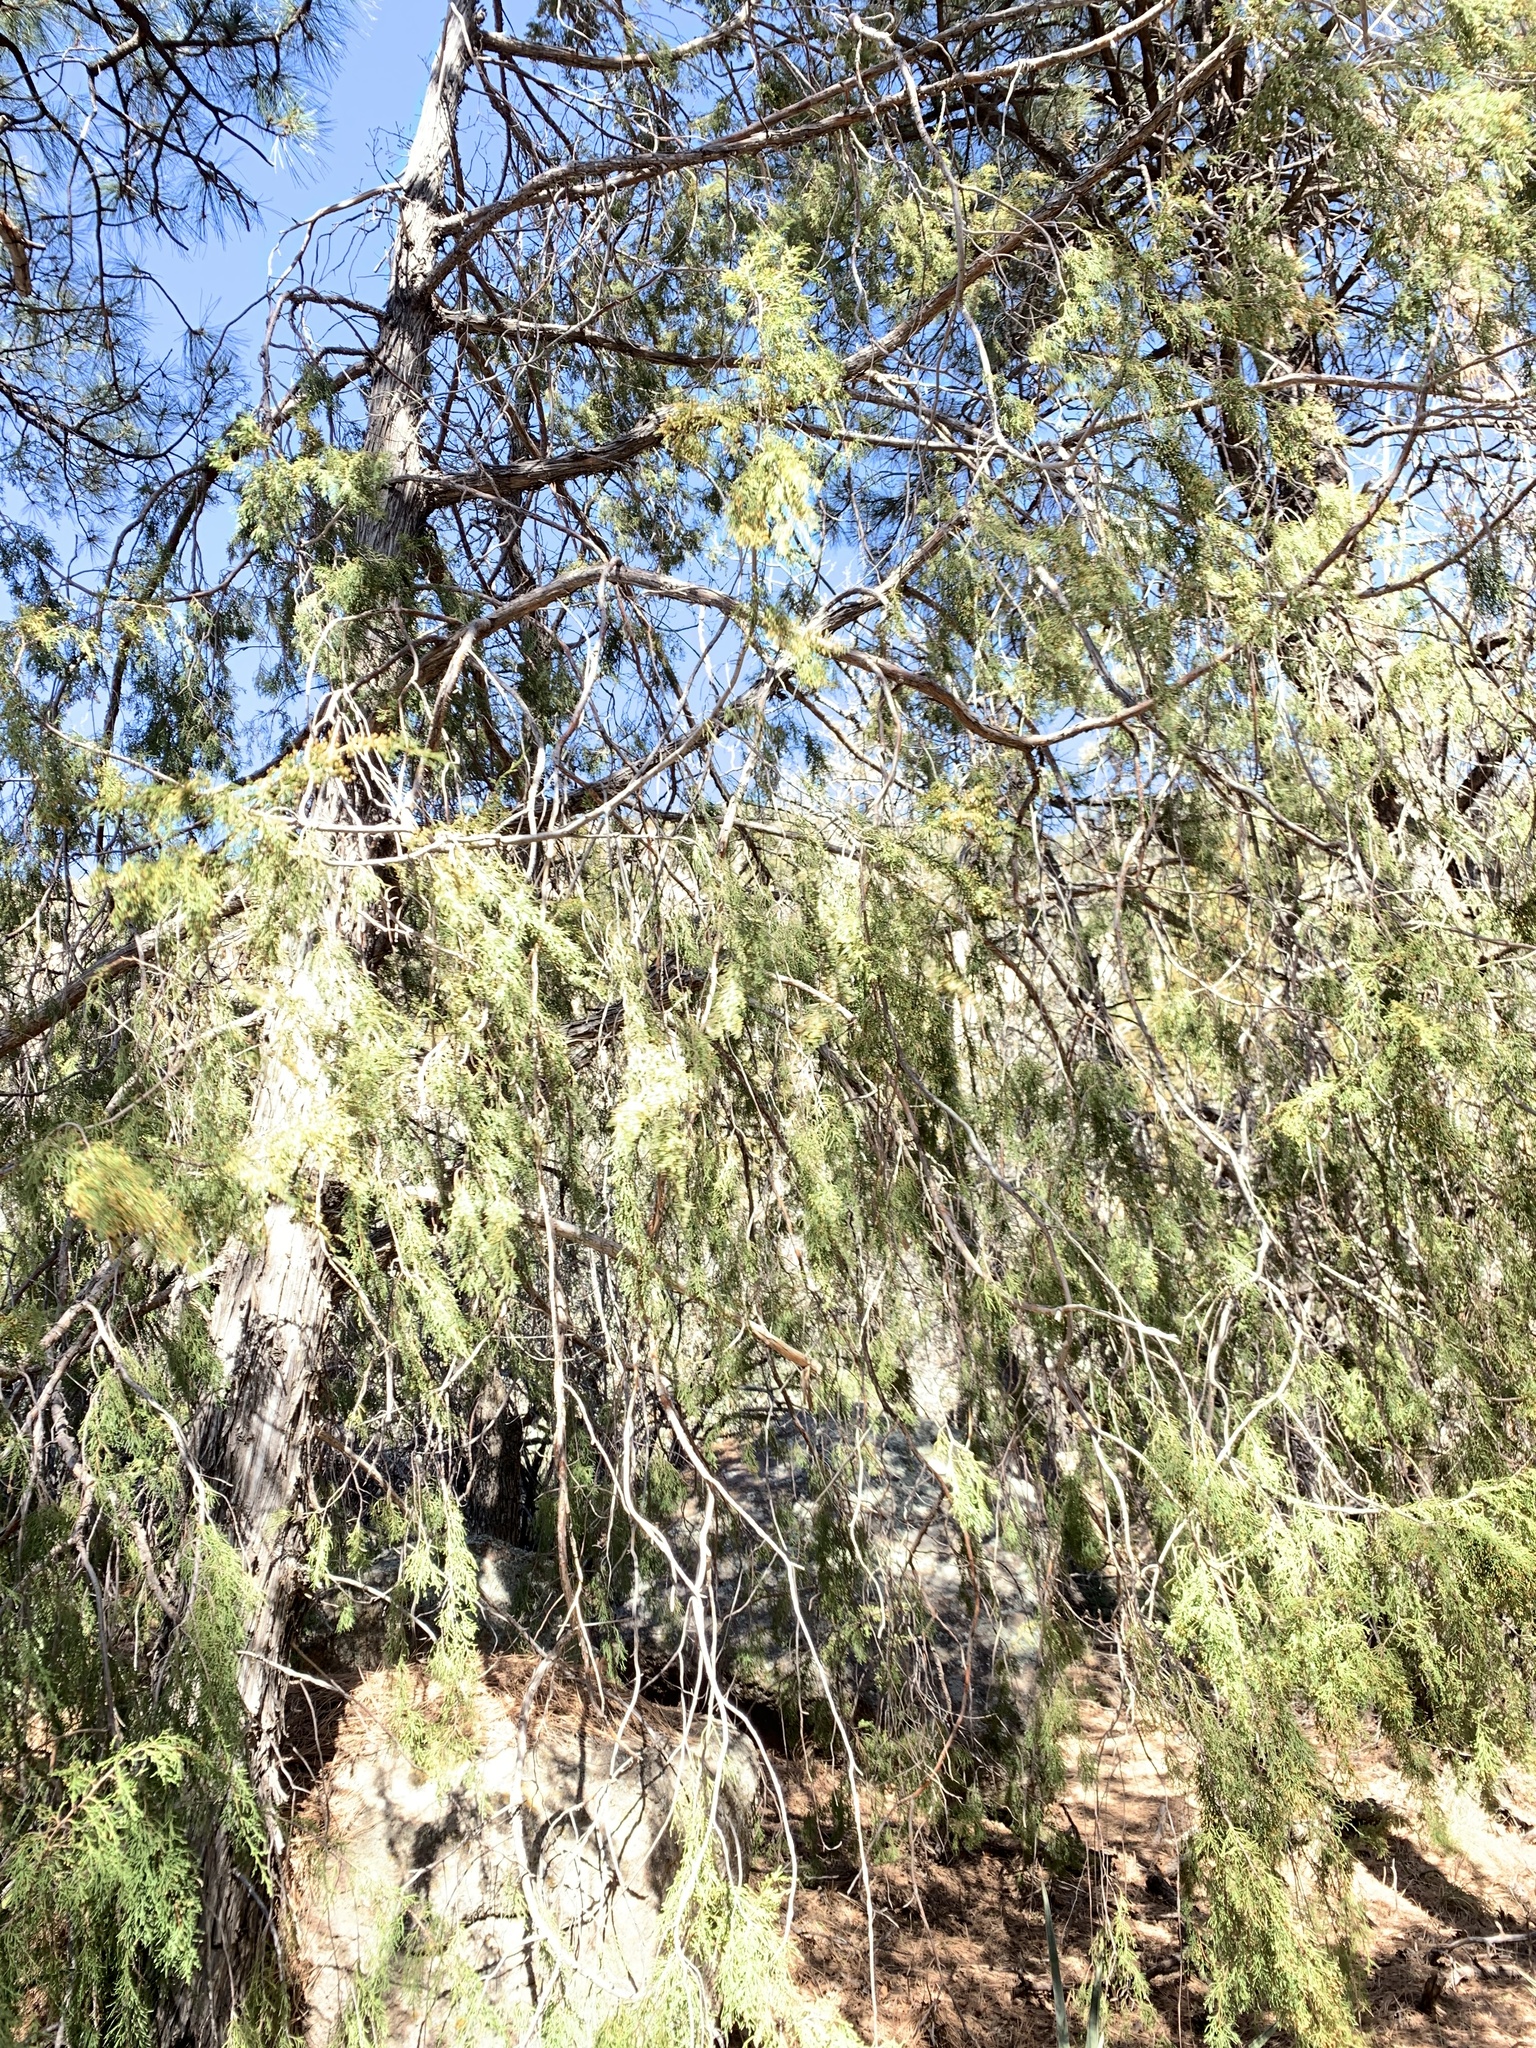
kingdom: Plantae
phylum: Tracheophyta
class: Pinopsida
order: Pinales
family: Cupressaceae
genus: Juniperus
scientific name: Juniperus scopulorum
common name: Rocky mountain juniper
